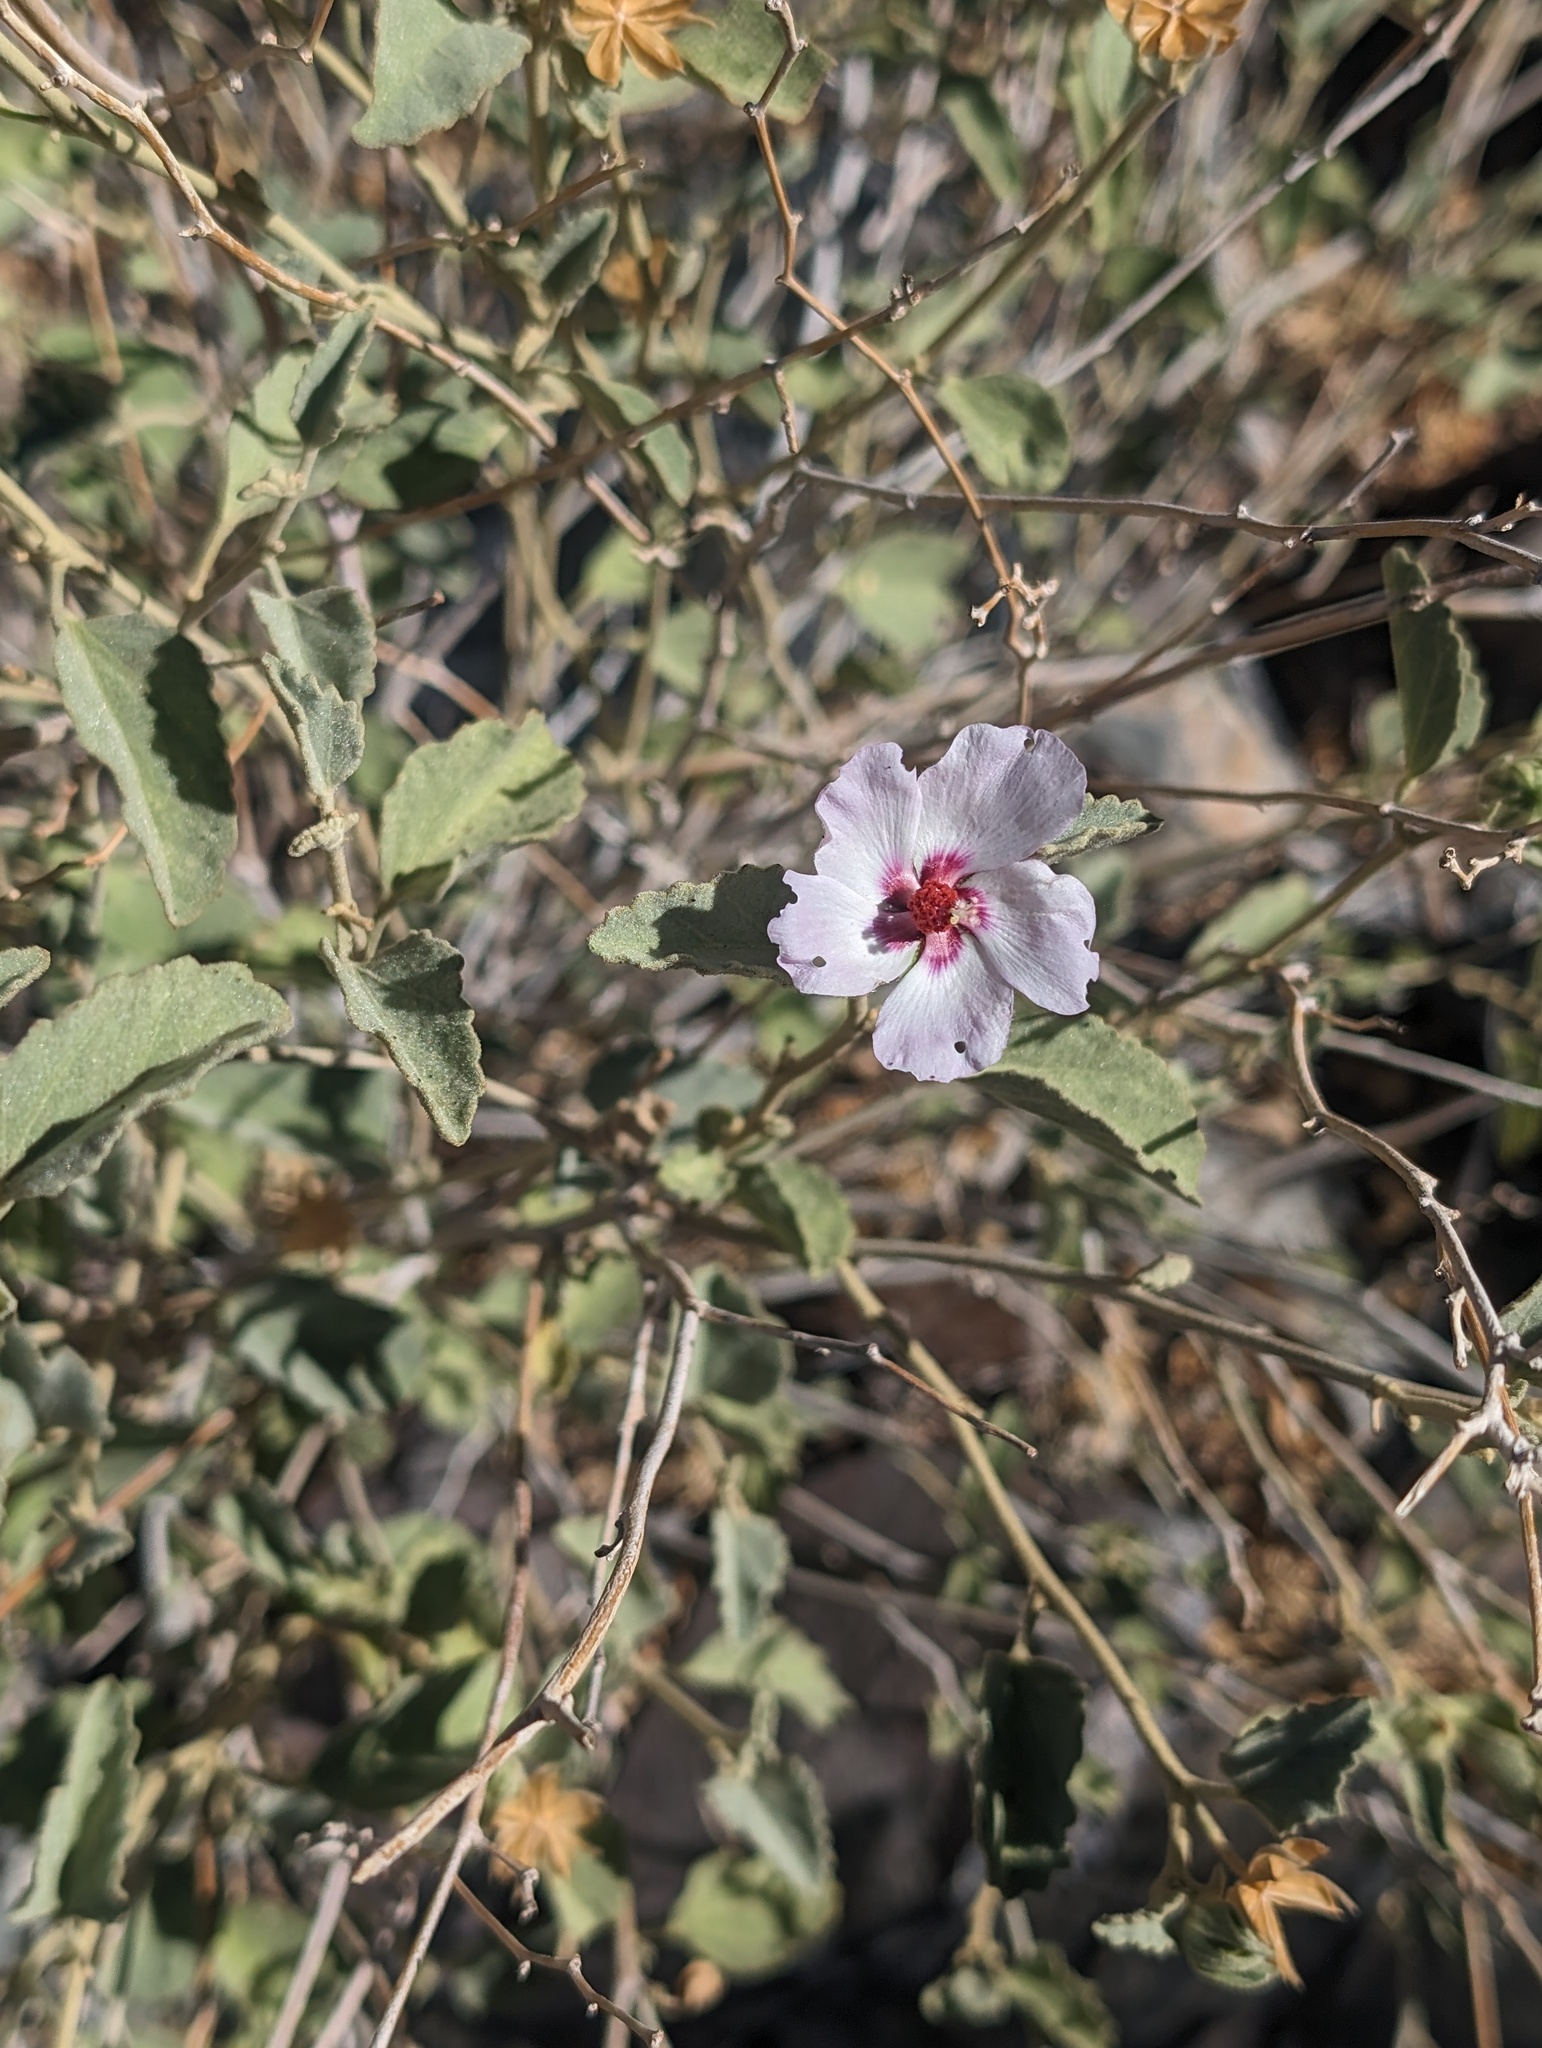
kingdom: Plantae
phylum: Tracheophyta
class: Magnoliopsida
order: Malvales
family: Malvaceae
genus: Hibiscus
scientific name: Hibiscus denudatus
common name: Paleface
